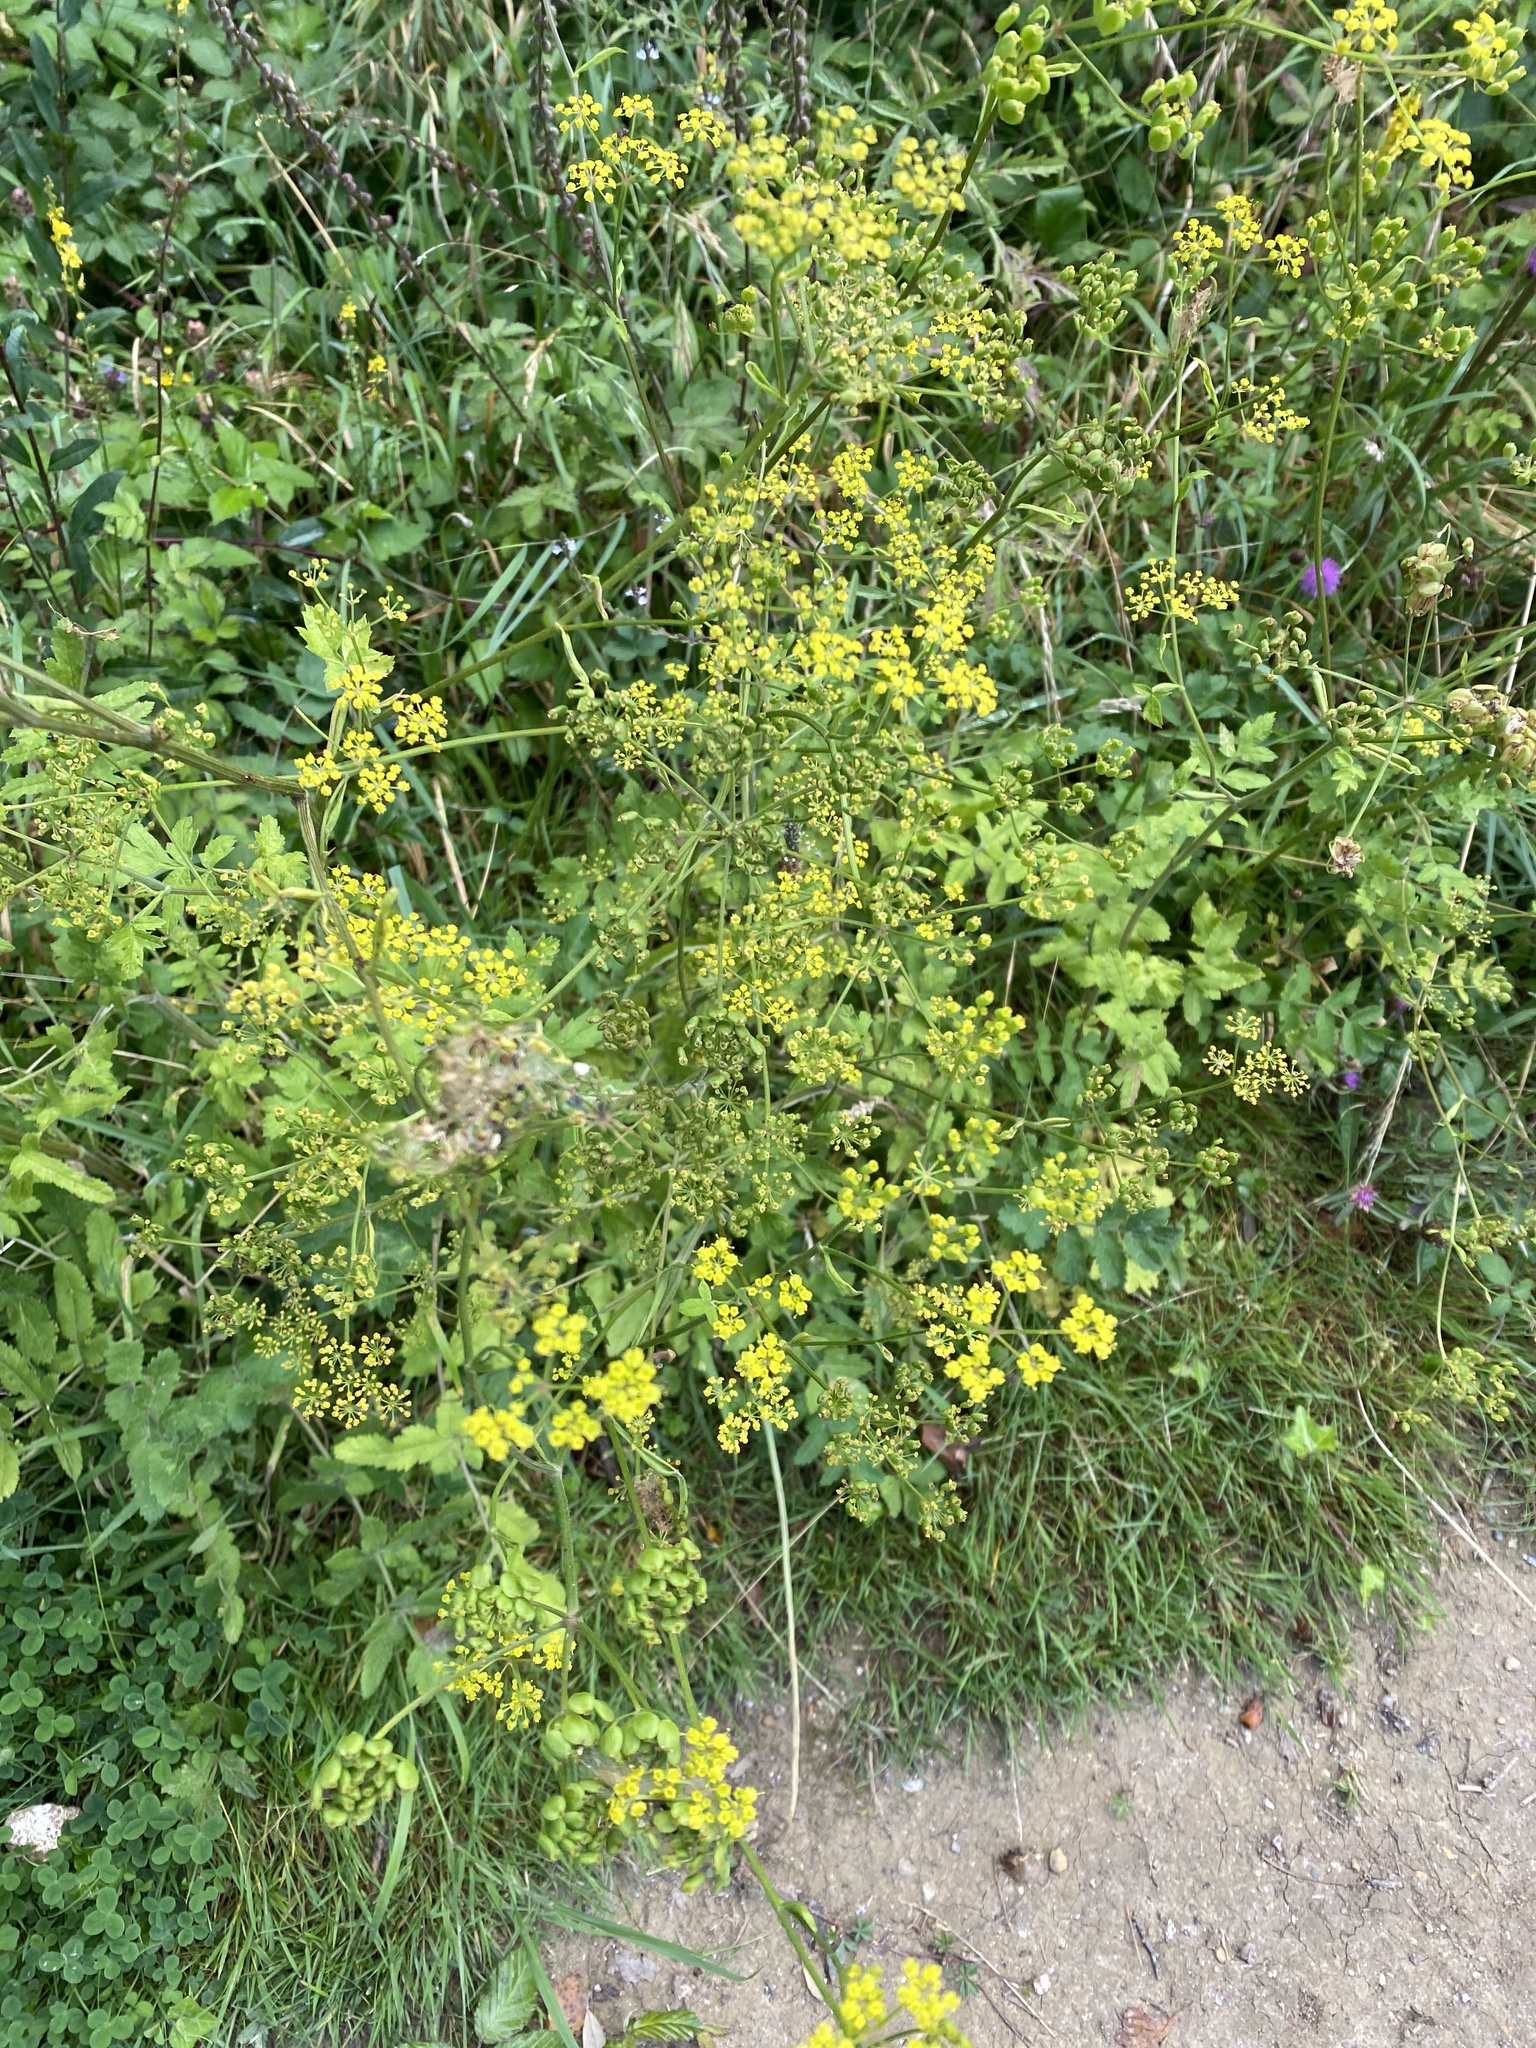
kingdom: Plantae
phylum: Tracheophyta
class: Magnoliopsida
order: Apiales
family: Apiaceae
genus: Pastinaca
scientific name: Pastinaca sativa
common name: Wild parsnip
